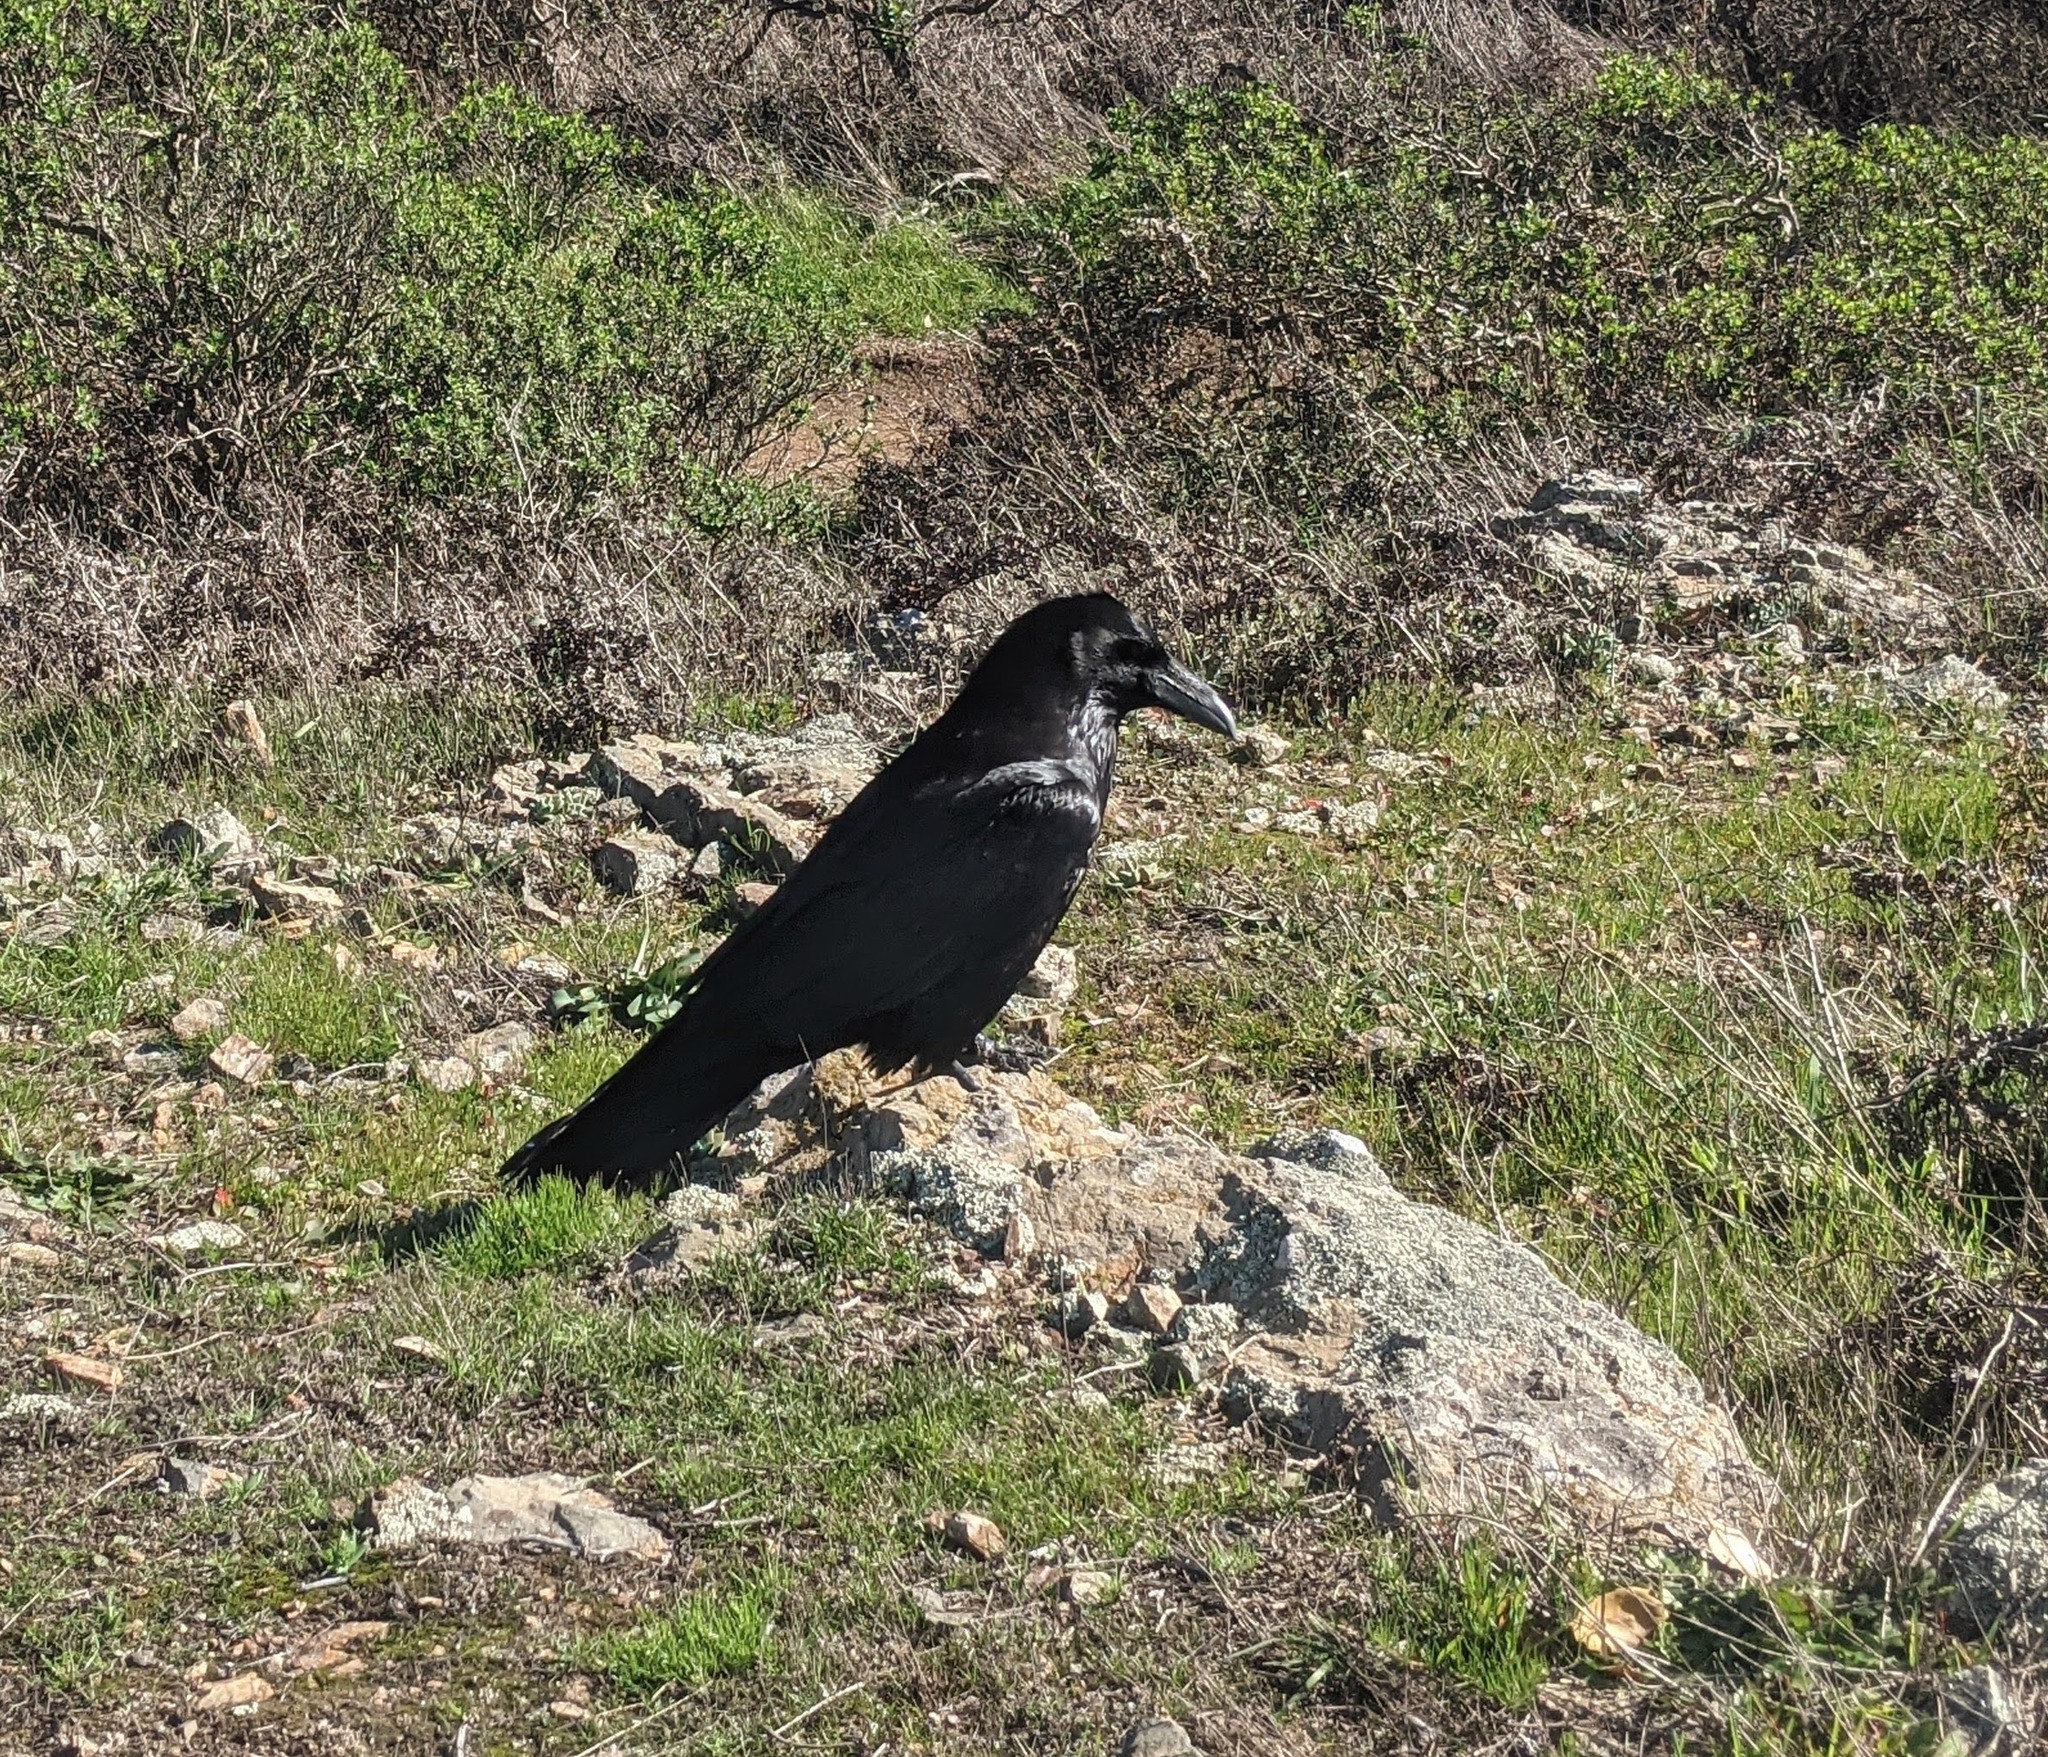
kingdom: Animalia
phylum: Chordata
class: Aves
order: Passeriformes
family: Corvidae
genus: Corvus
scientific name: Corvus corax
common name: Common raven
